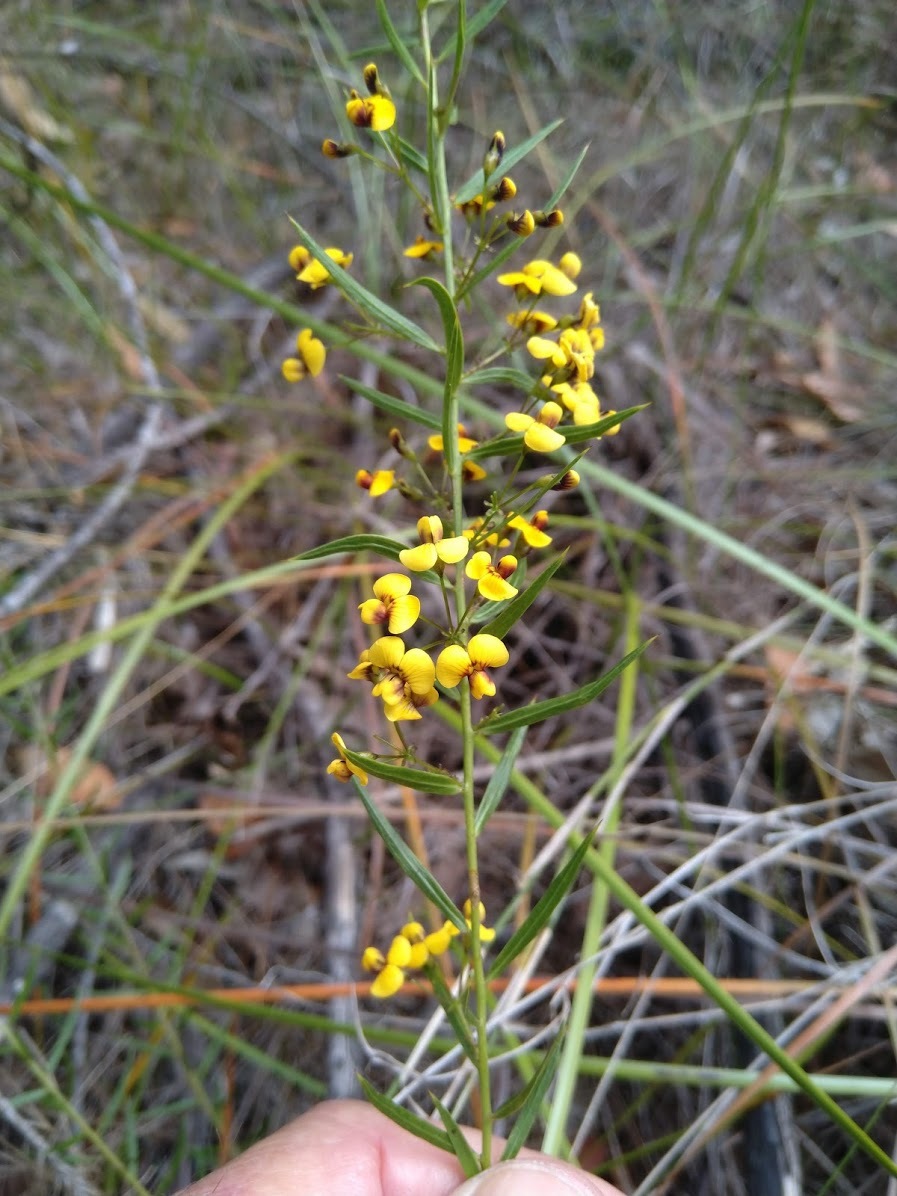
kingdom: Plantae
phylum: Tracheophyta
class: Magnoliopsida
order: Fabales
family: Fabaceae
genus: Daviesia
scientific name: Daviesia ulicifolia
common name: Gorse bitter-pea
